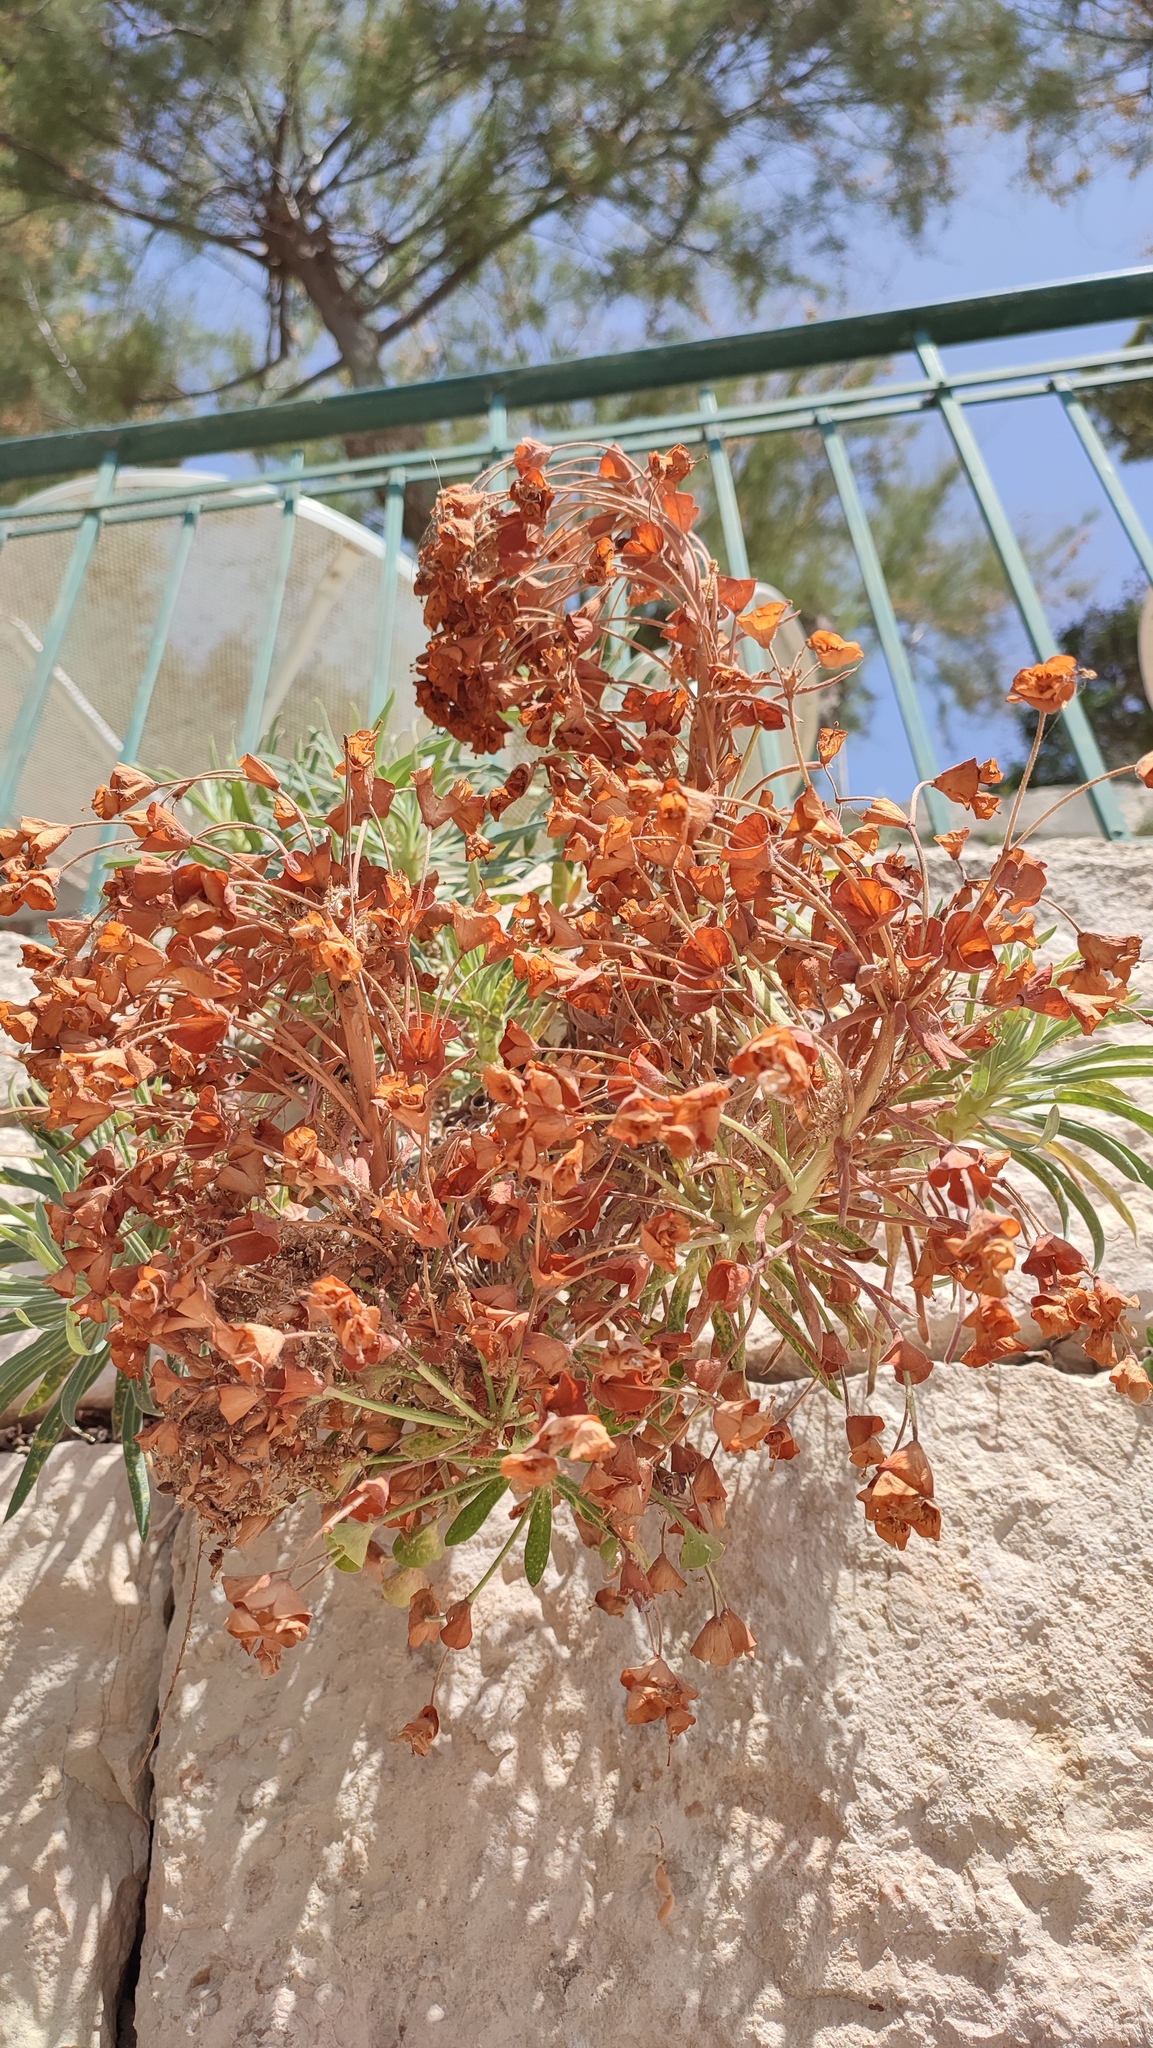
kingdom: Plantae
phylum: Tracheophyta
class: Magnoliopsida
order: Malpighiales
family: Euphorbiaceae
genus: Euphorbia
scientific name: Euphorbia characias
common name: Mediterranean spurge
